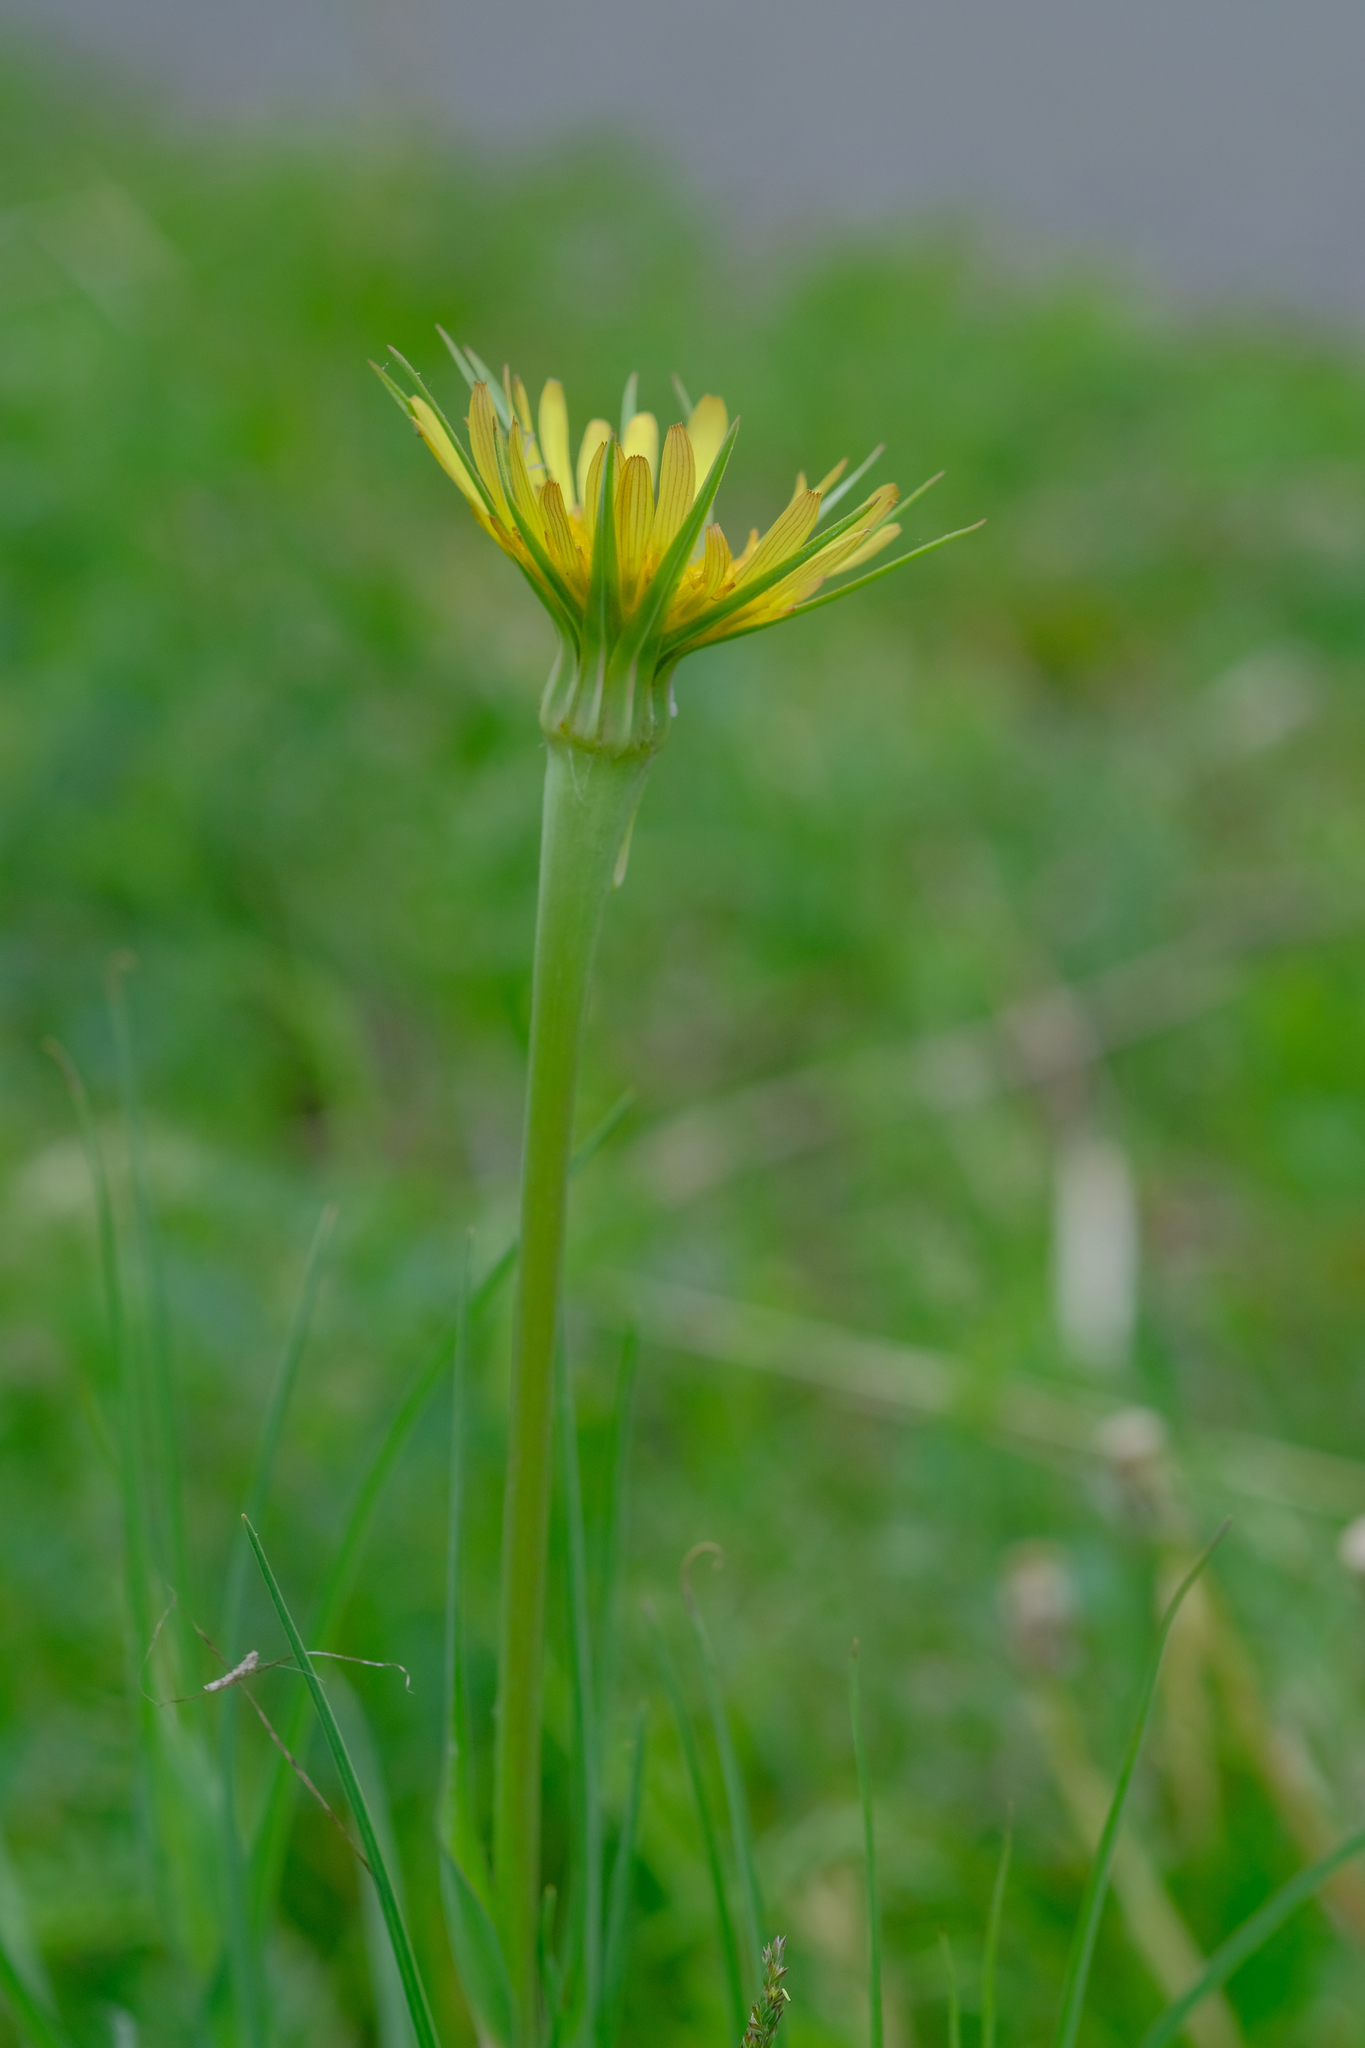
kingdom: Plantae
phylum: Tracheophyta
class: Magnoliopsida
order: Asterales
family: Asteraceae
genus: Tragopogon
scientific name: Tragopogon dubius
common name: Yellow salsify
